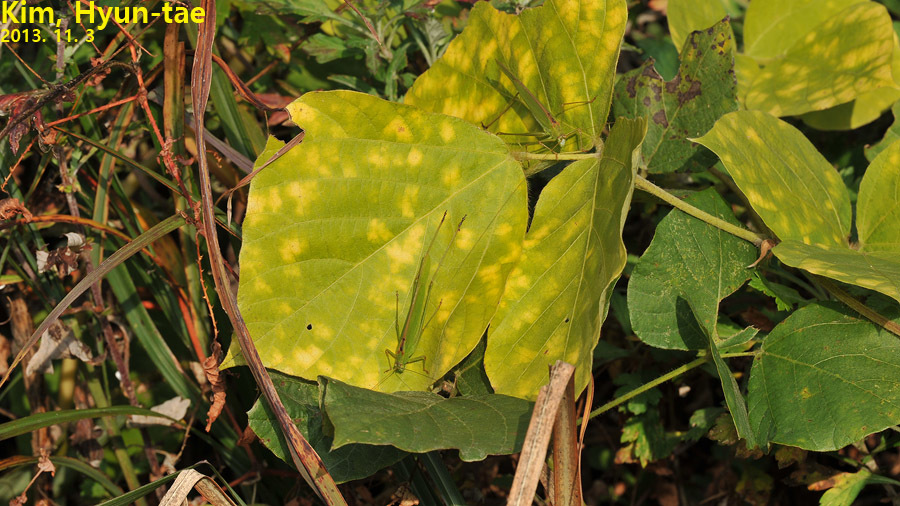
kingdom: Animalia
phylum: Arthropoda
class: Insecta
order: Orthoptera
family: Tettigoniidae
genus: Phaneroptera
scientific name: Phaneroptera falcata
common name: Sickle-bearing bush-cricket
